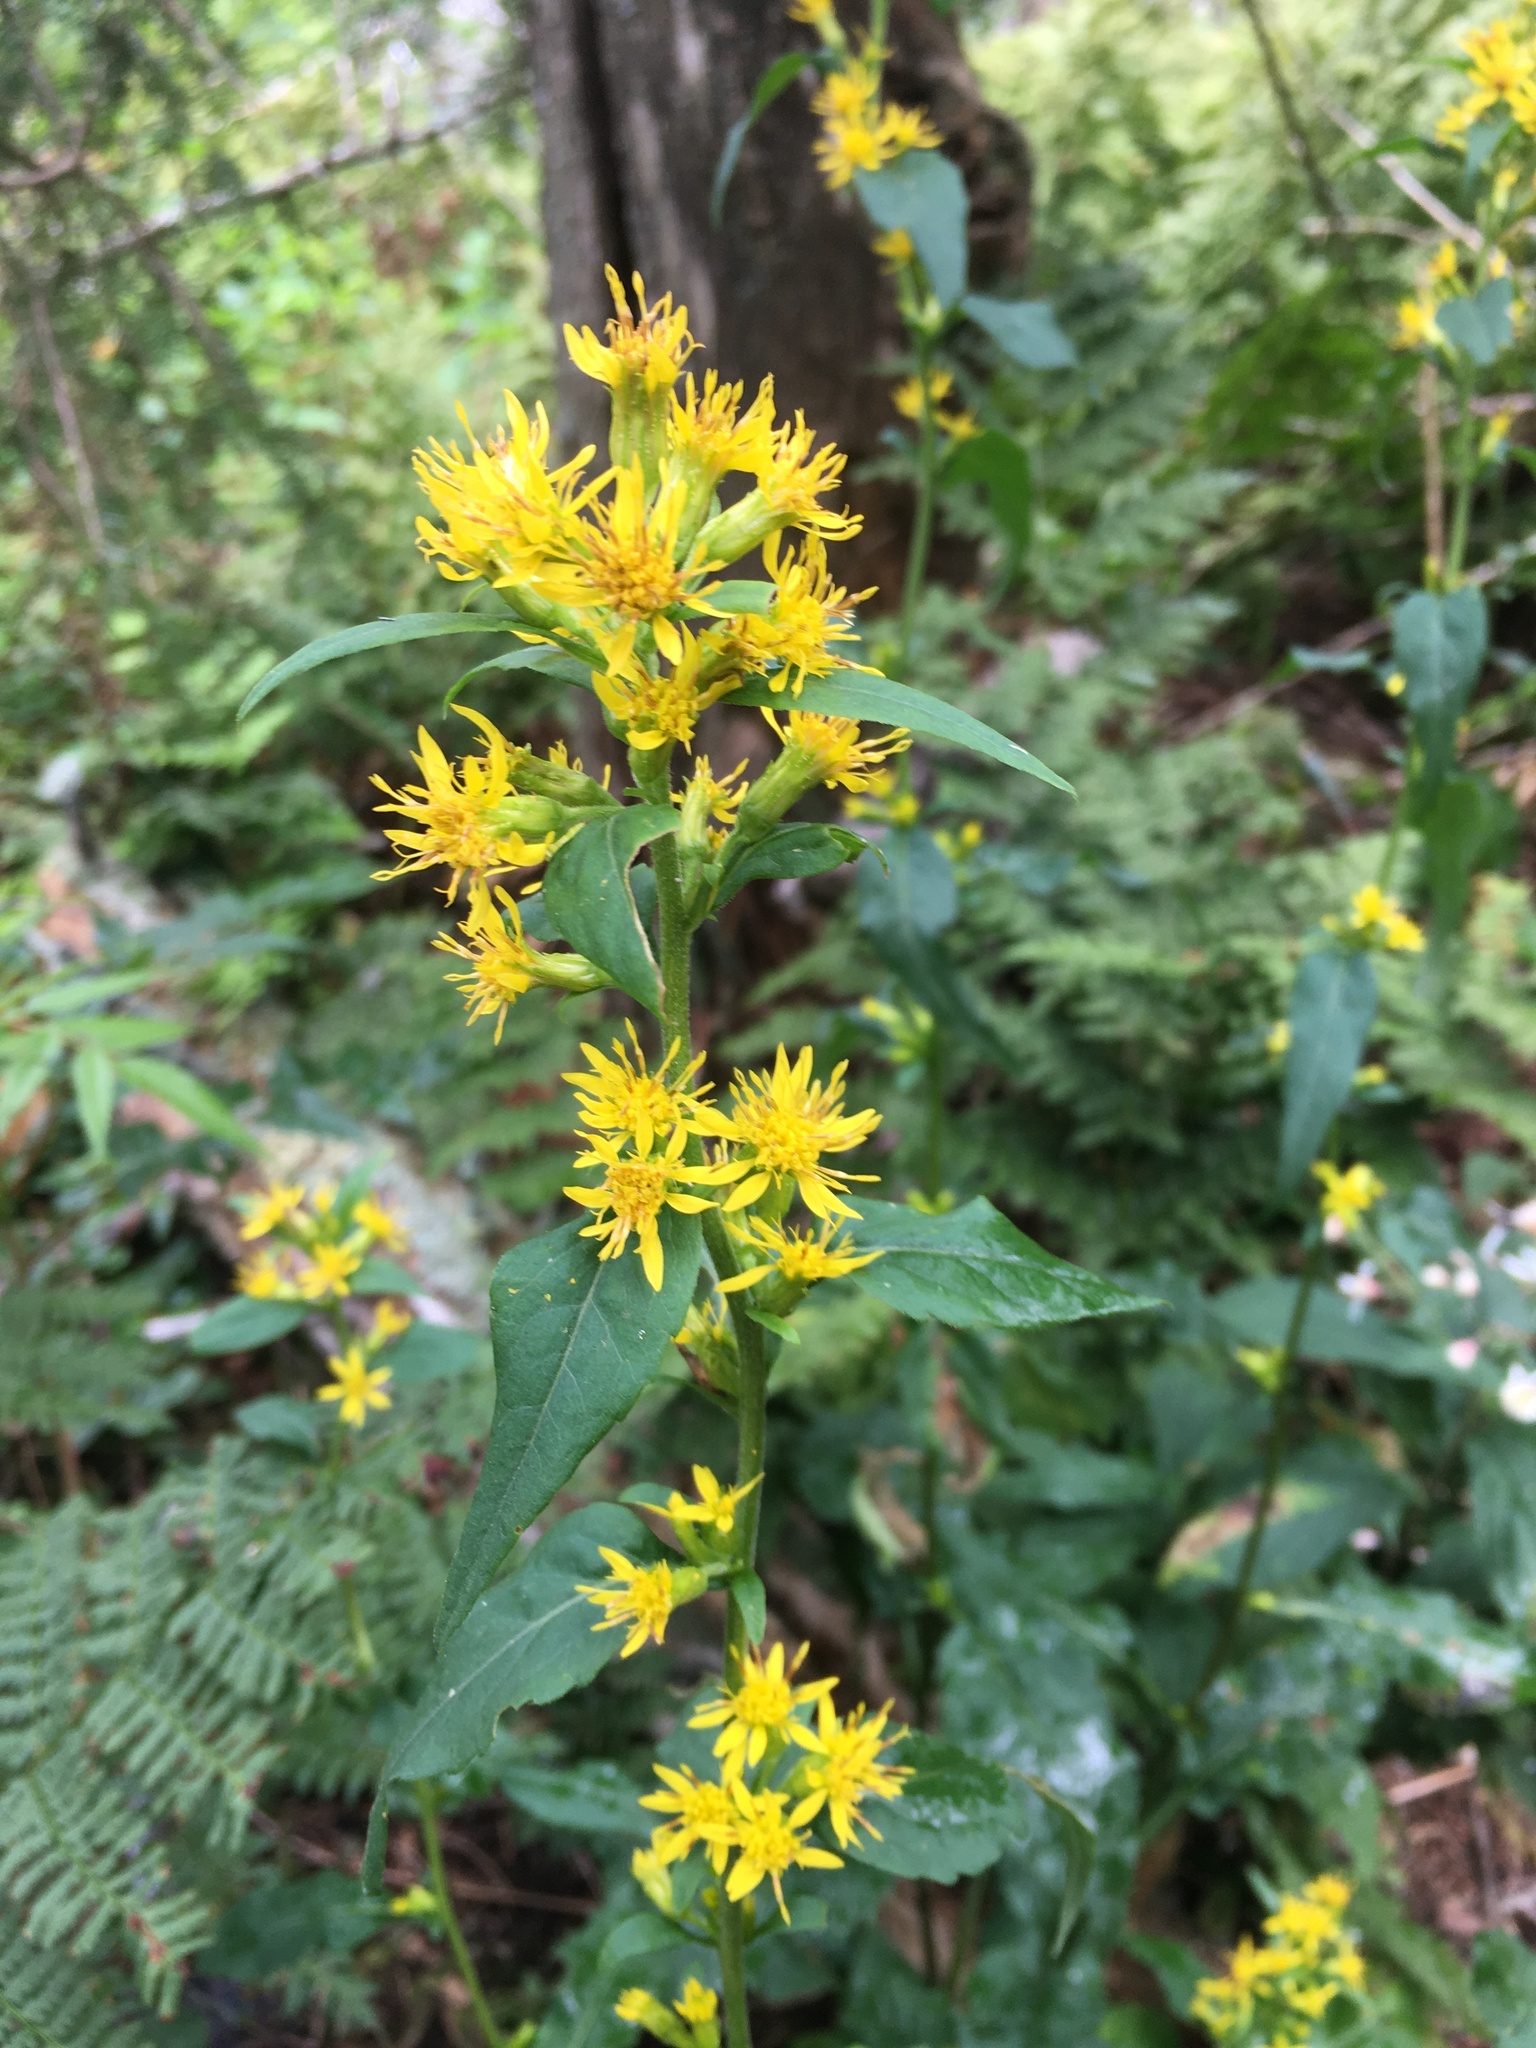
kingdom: Plantae
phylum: Tracheophyta
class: Magnoliopsida
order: Asterales
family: Asteraceae
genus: Solidago
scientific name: Solidago macrophylla
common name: Large-leaved goldenrod
